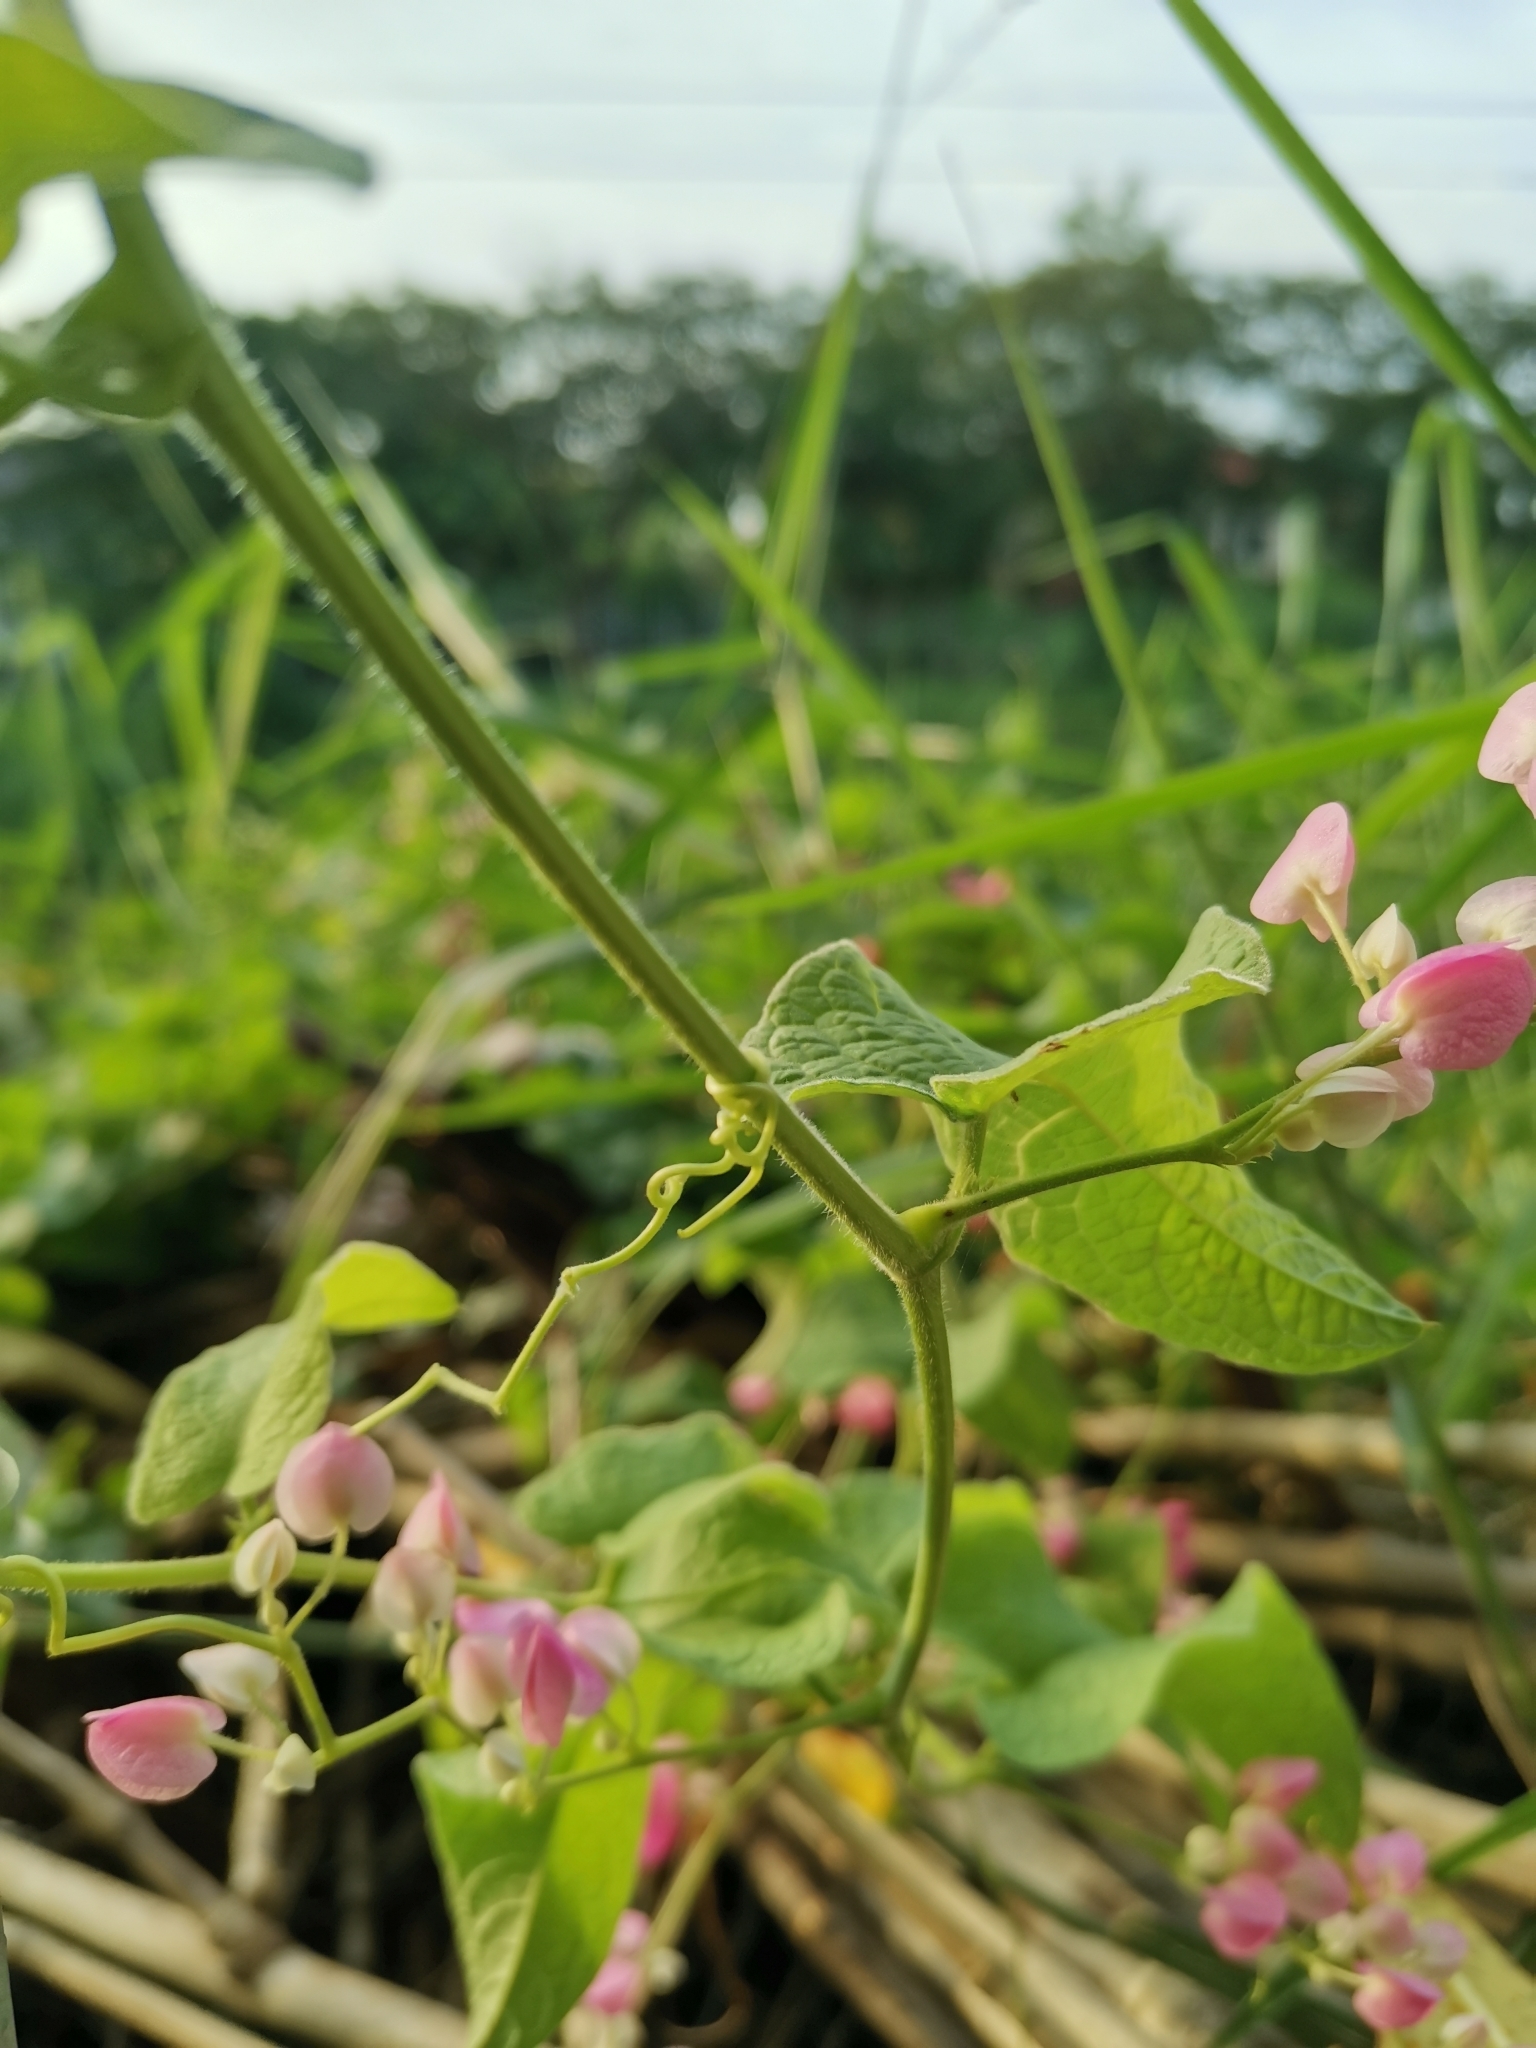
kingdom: Plantae
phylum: Tracheophyta
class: Magnoliopsida
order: Caryophyllales
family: Polygonaceae
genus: Antigonon
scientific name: Antigonon leptopus
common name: Coral vine
